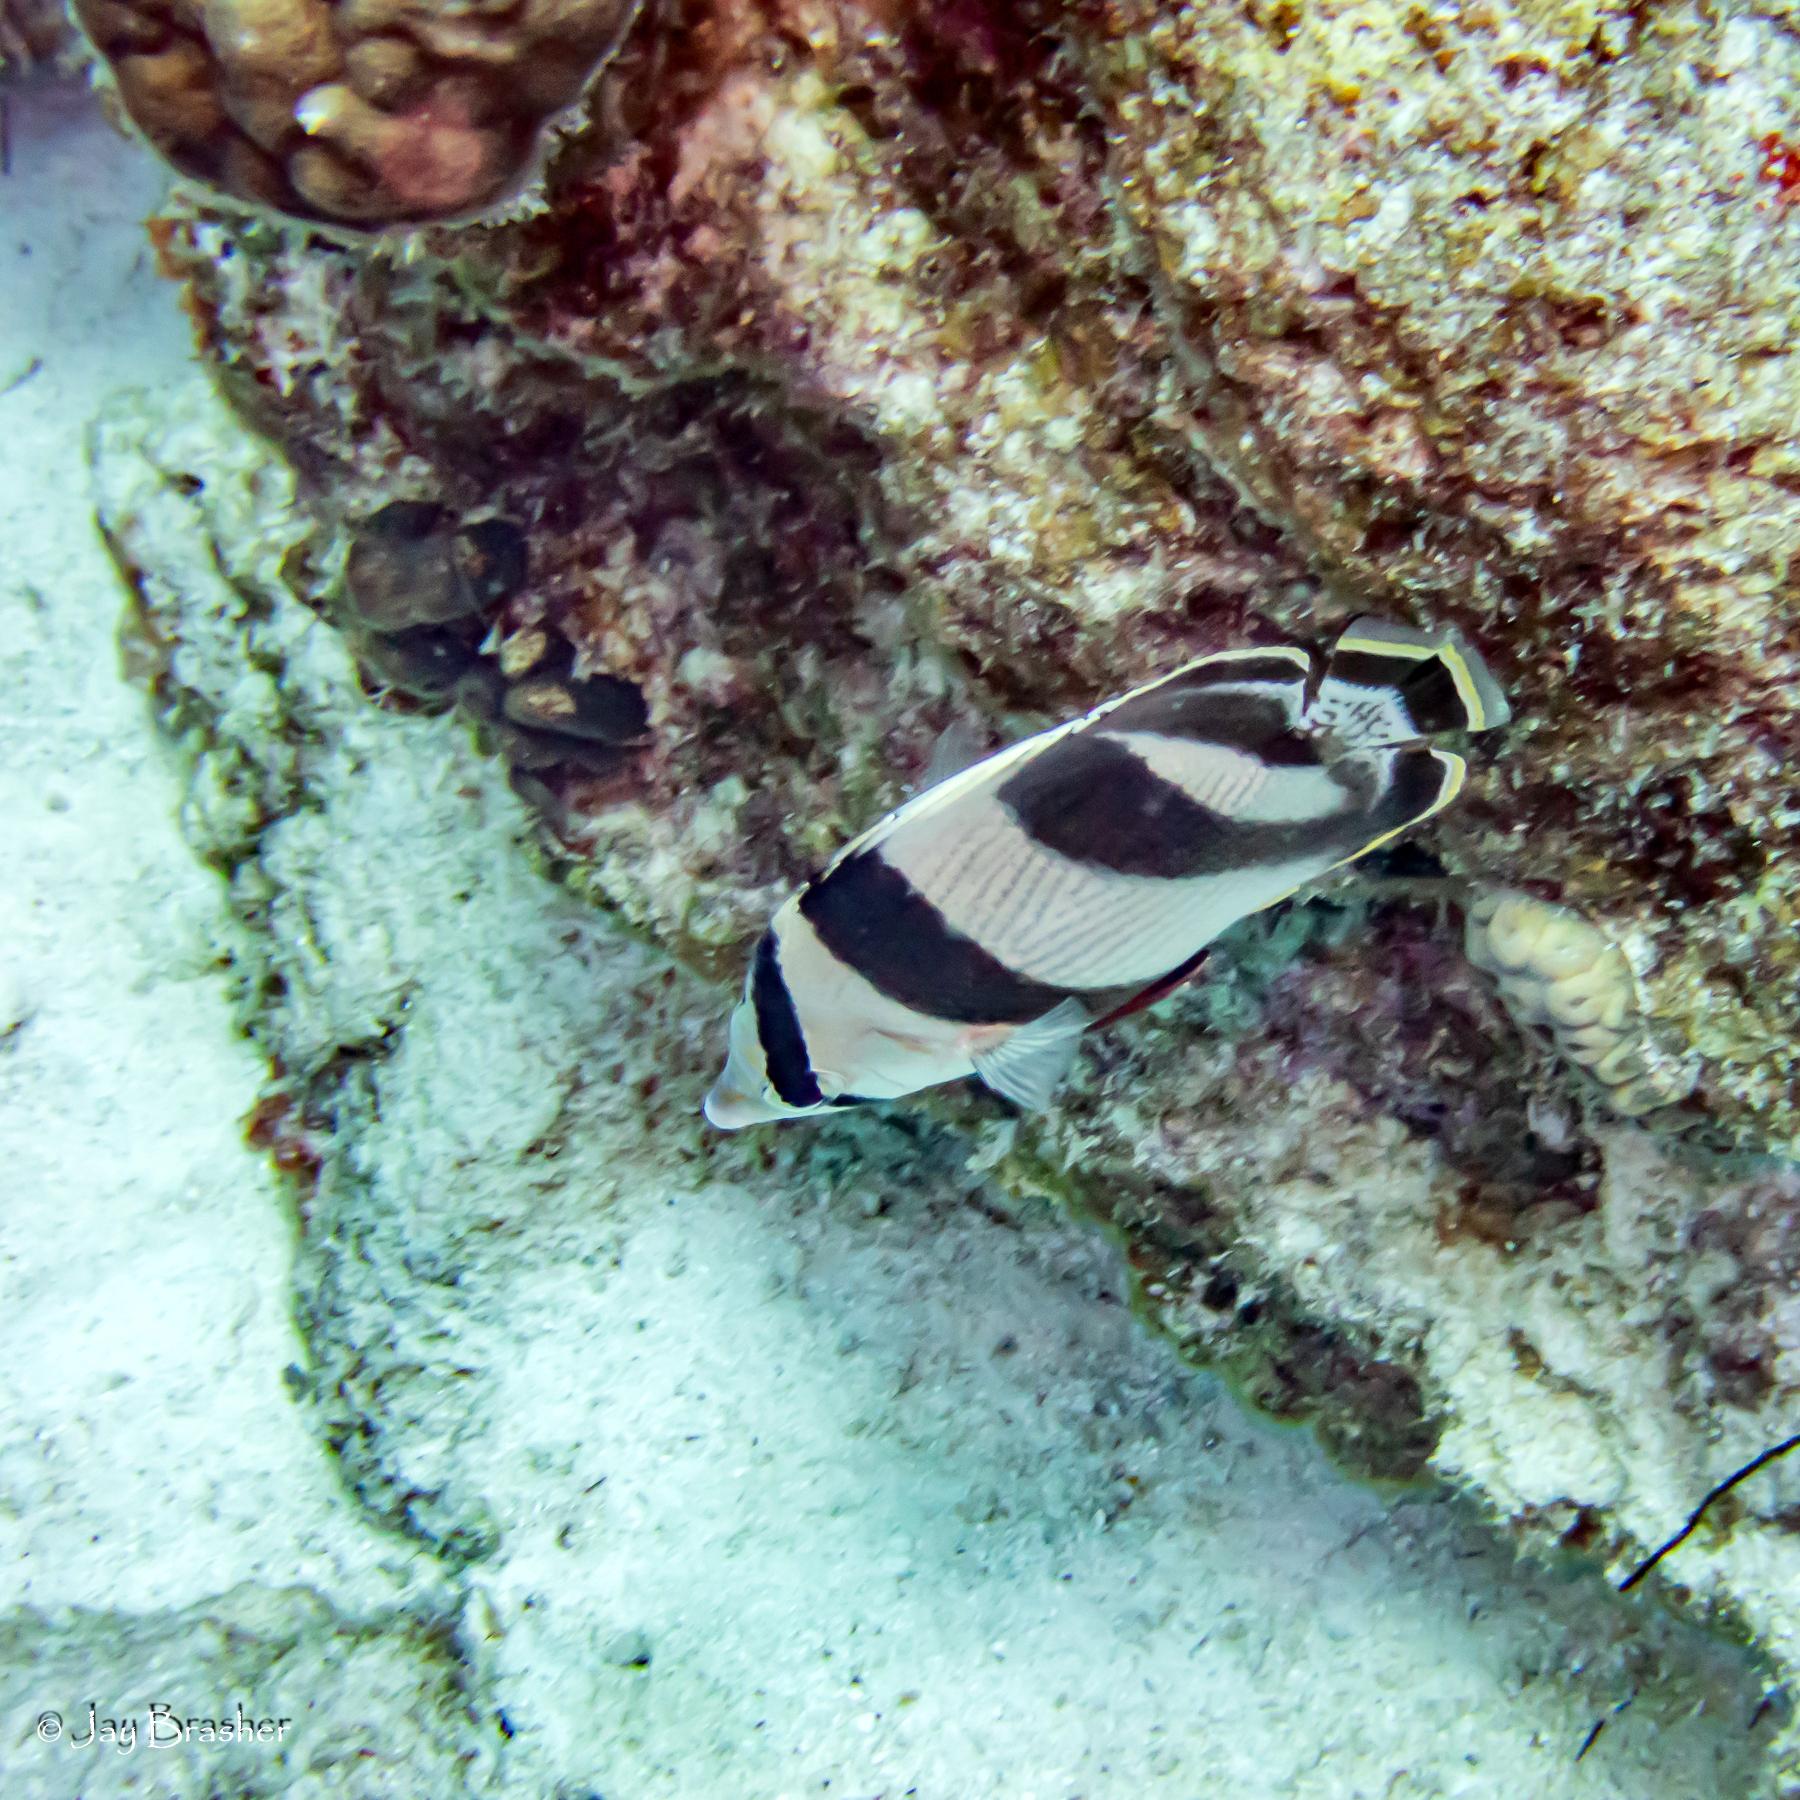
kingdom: Animalia
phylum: Chordata
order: Perciformes
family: Chaetodontidae
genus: Chaetodon
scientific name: Chaetodon striatus
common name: Banded butterflyfish
